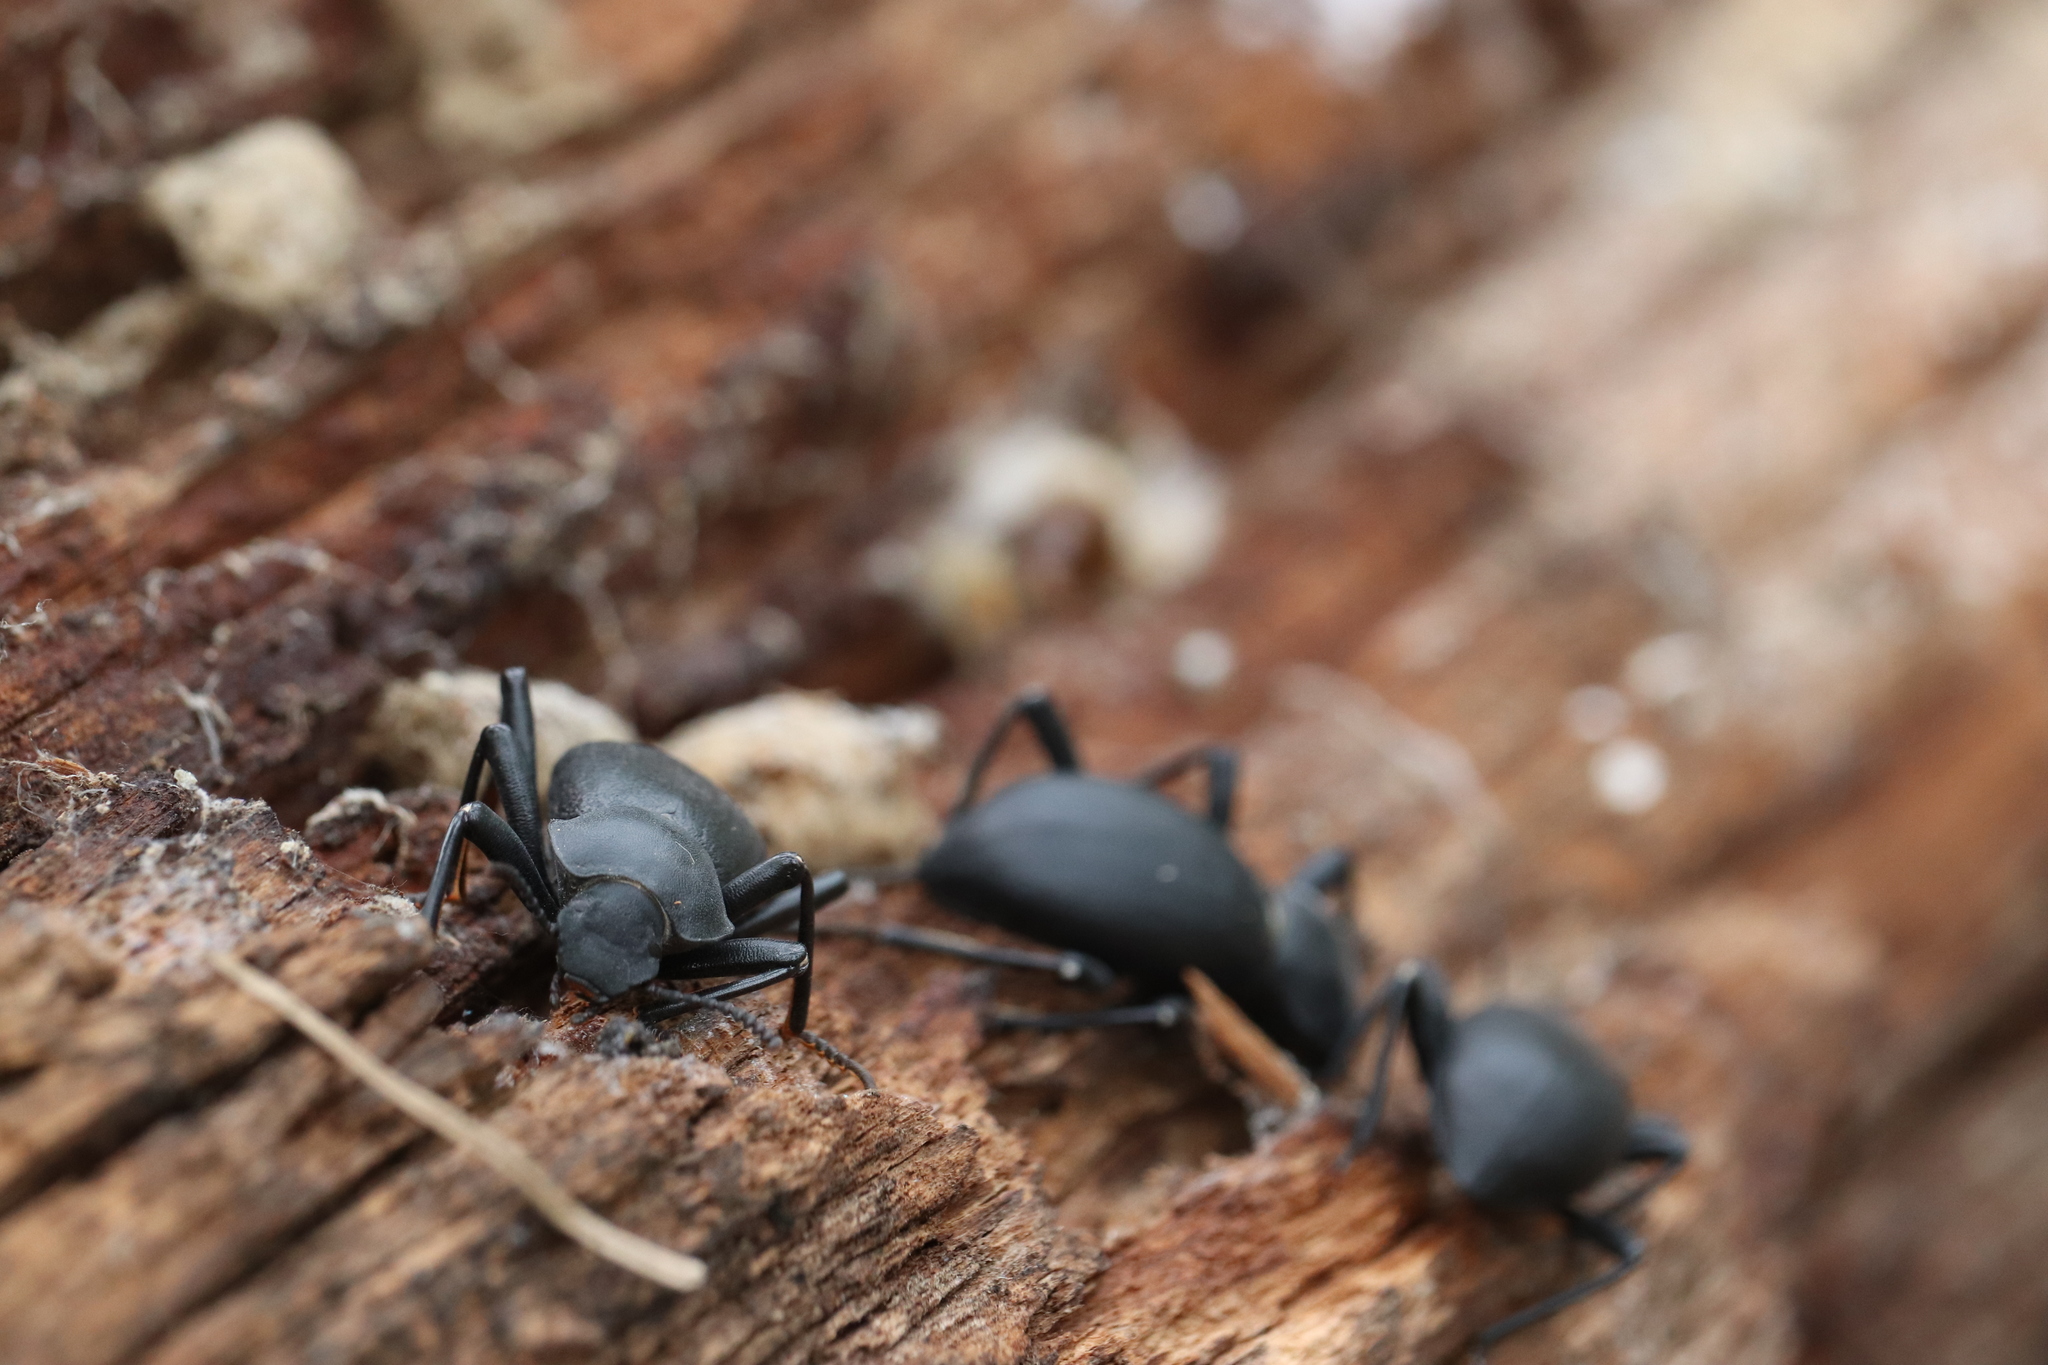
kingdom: Animalia
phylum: Arthropoda
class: Insecta
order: Coleoptera
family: Tenebrionidae
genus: Coelocnemis
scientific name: Coelocnemis dilaticollis
